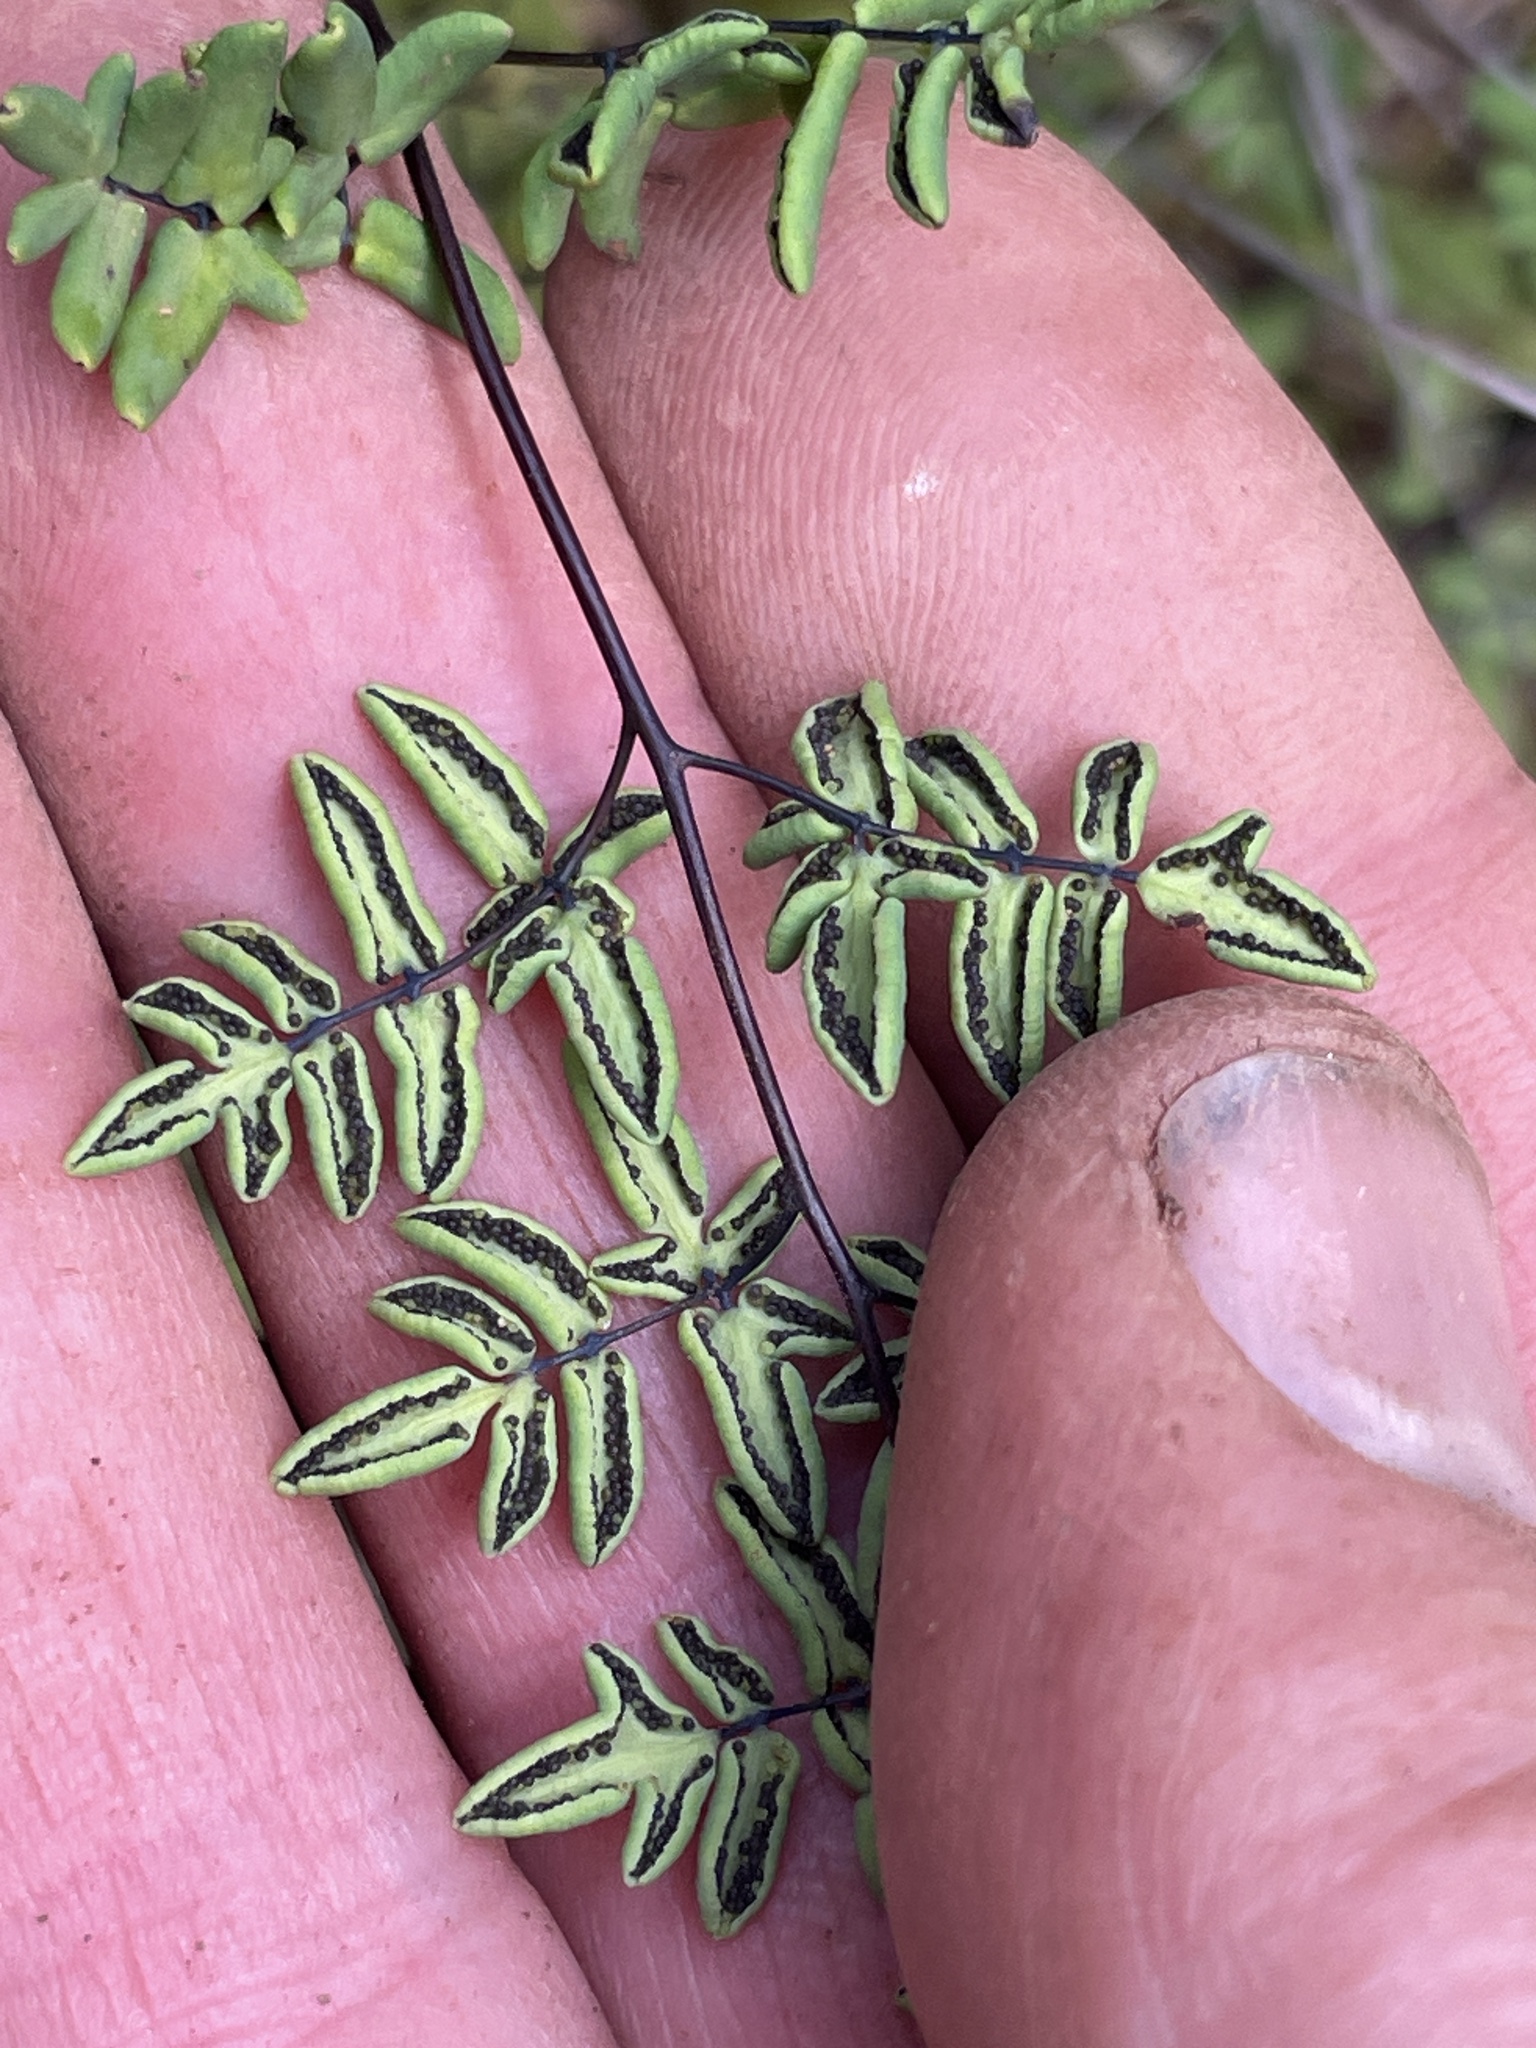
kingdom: Plantae
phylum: Tracheophyta
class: Polypodiopsida
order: Polypodiales
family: Pteridaceae
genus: Argyrochosma
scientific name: Argyrochosma tenera
